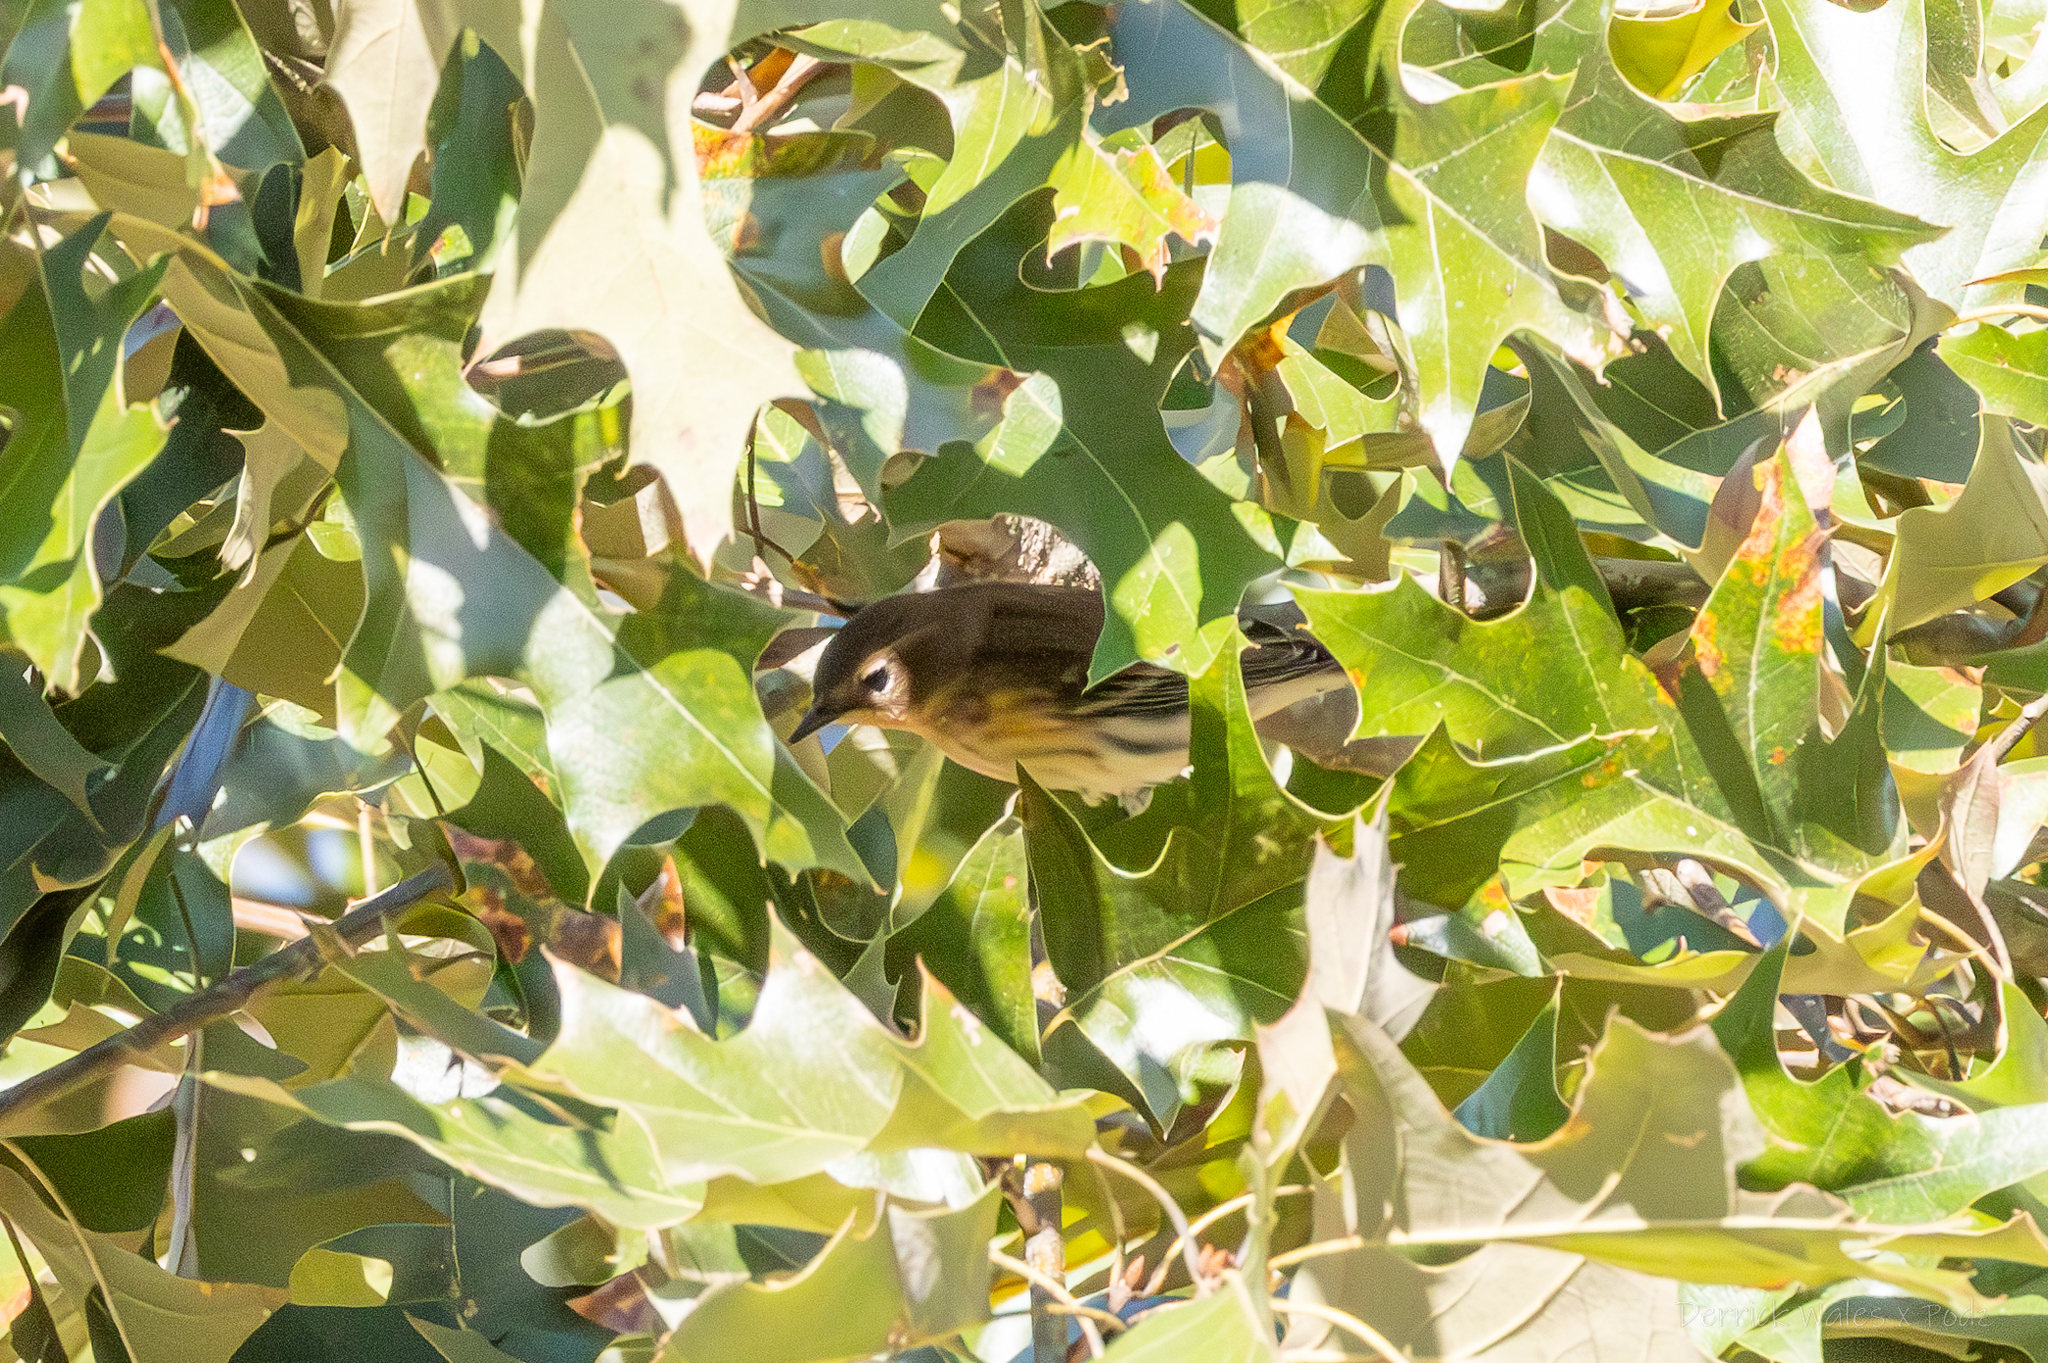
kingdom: Animalia
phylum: Chordata
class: Aves
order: Passeriformes
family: Parulidae
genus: Setophaga
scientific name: Setophaga coronata
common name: Myrtle warbler
